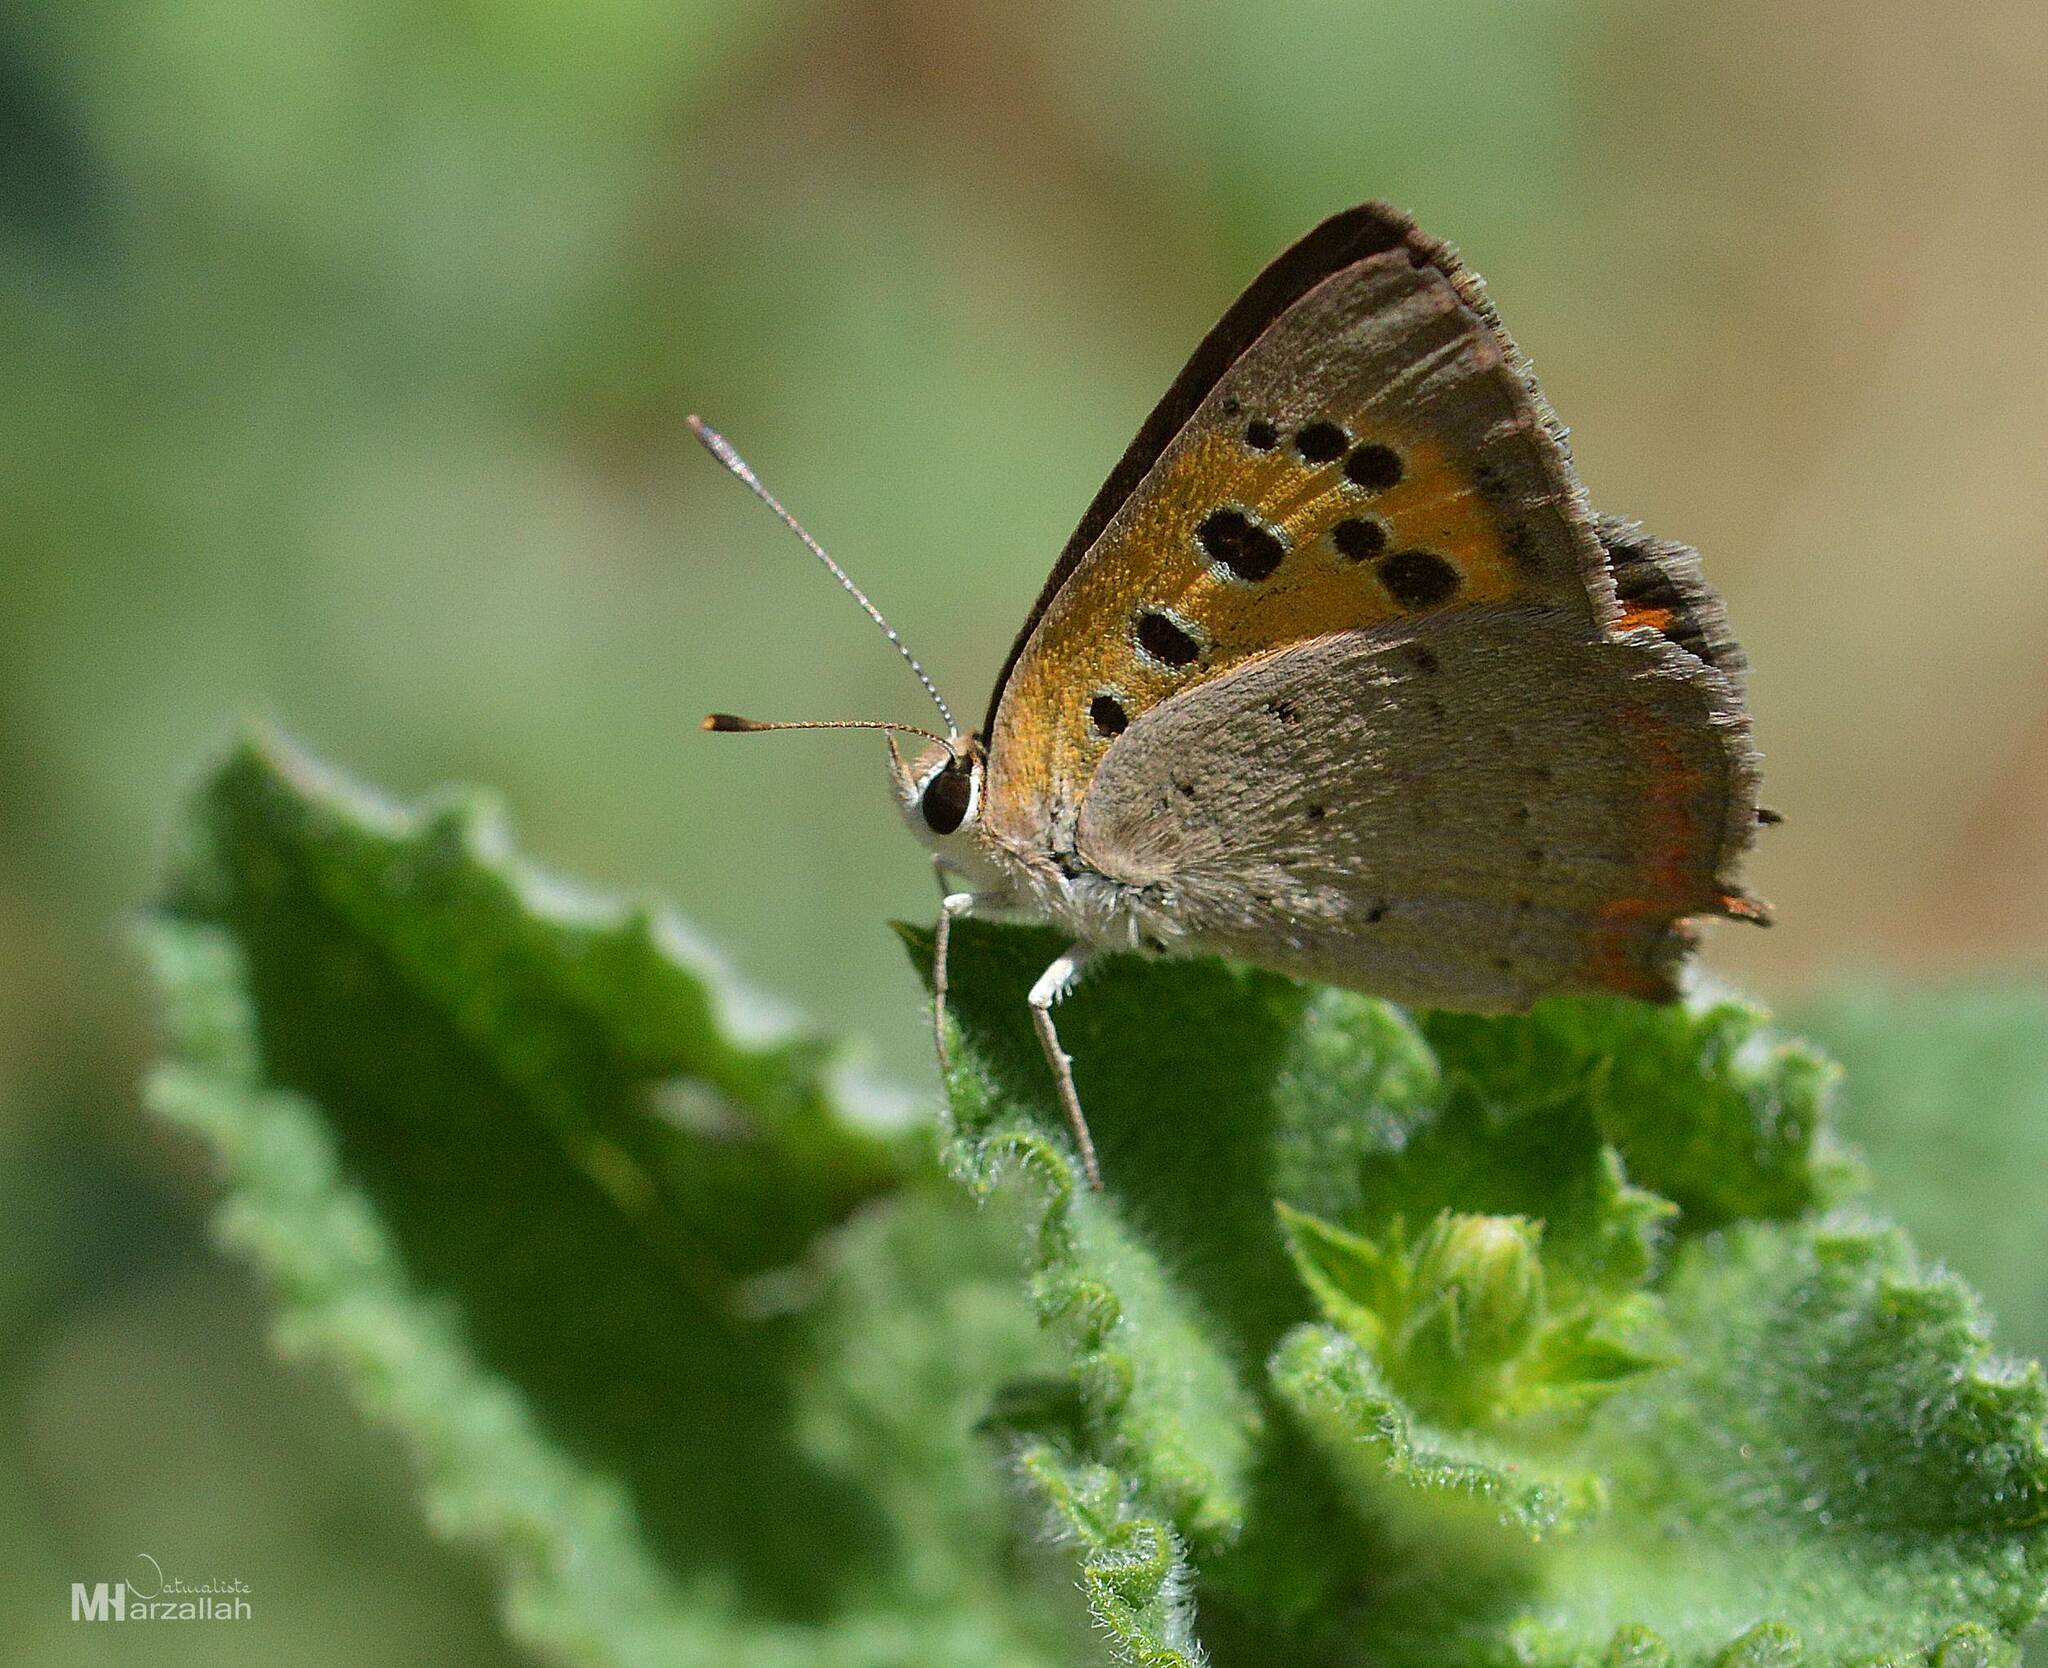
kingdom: Animalia
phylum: Arthropoda
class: Insecta
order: Lepidoptera
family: Lycaenidae
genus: Lycaena
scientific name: Lycaena phlaeas
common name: Small copper
